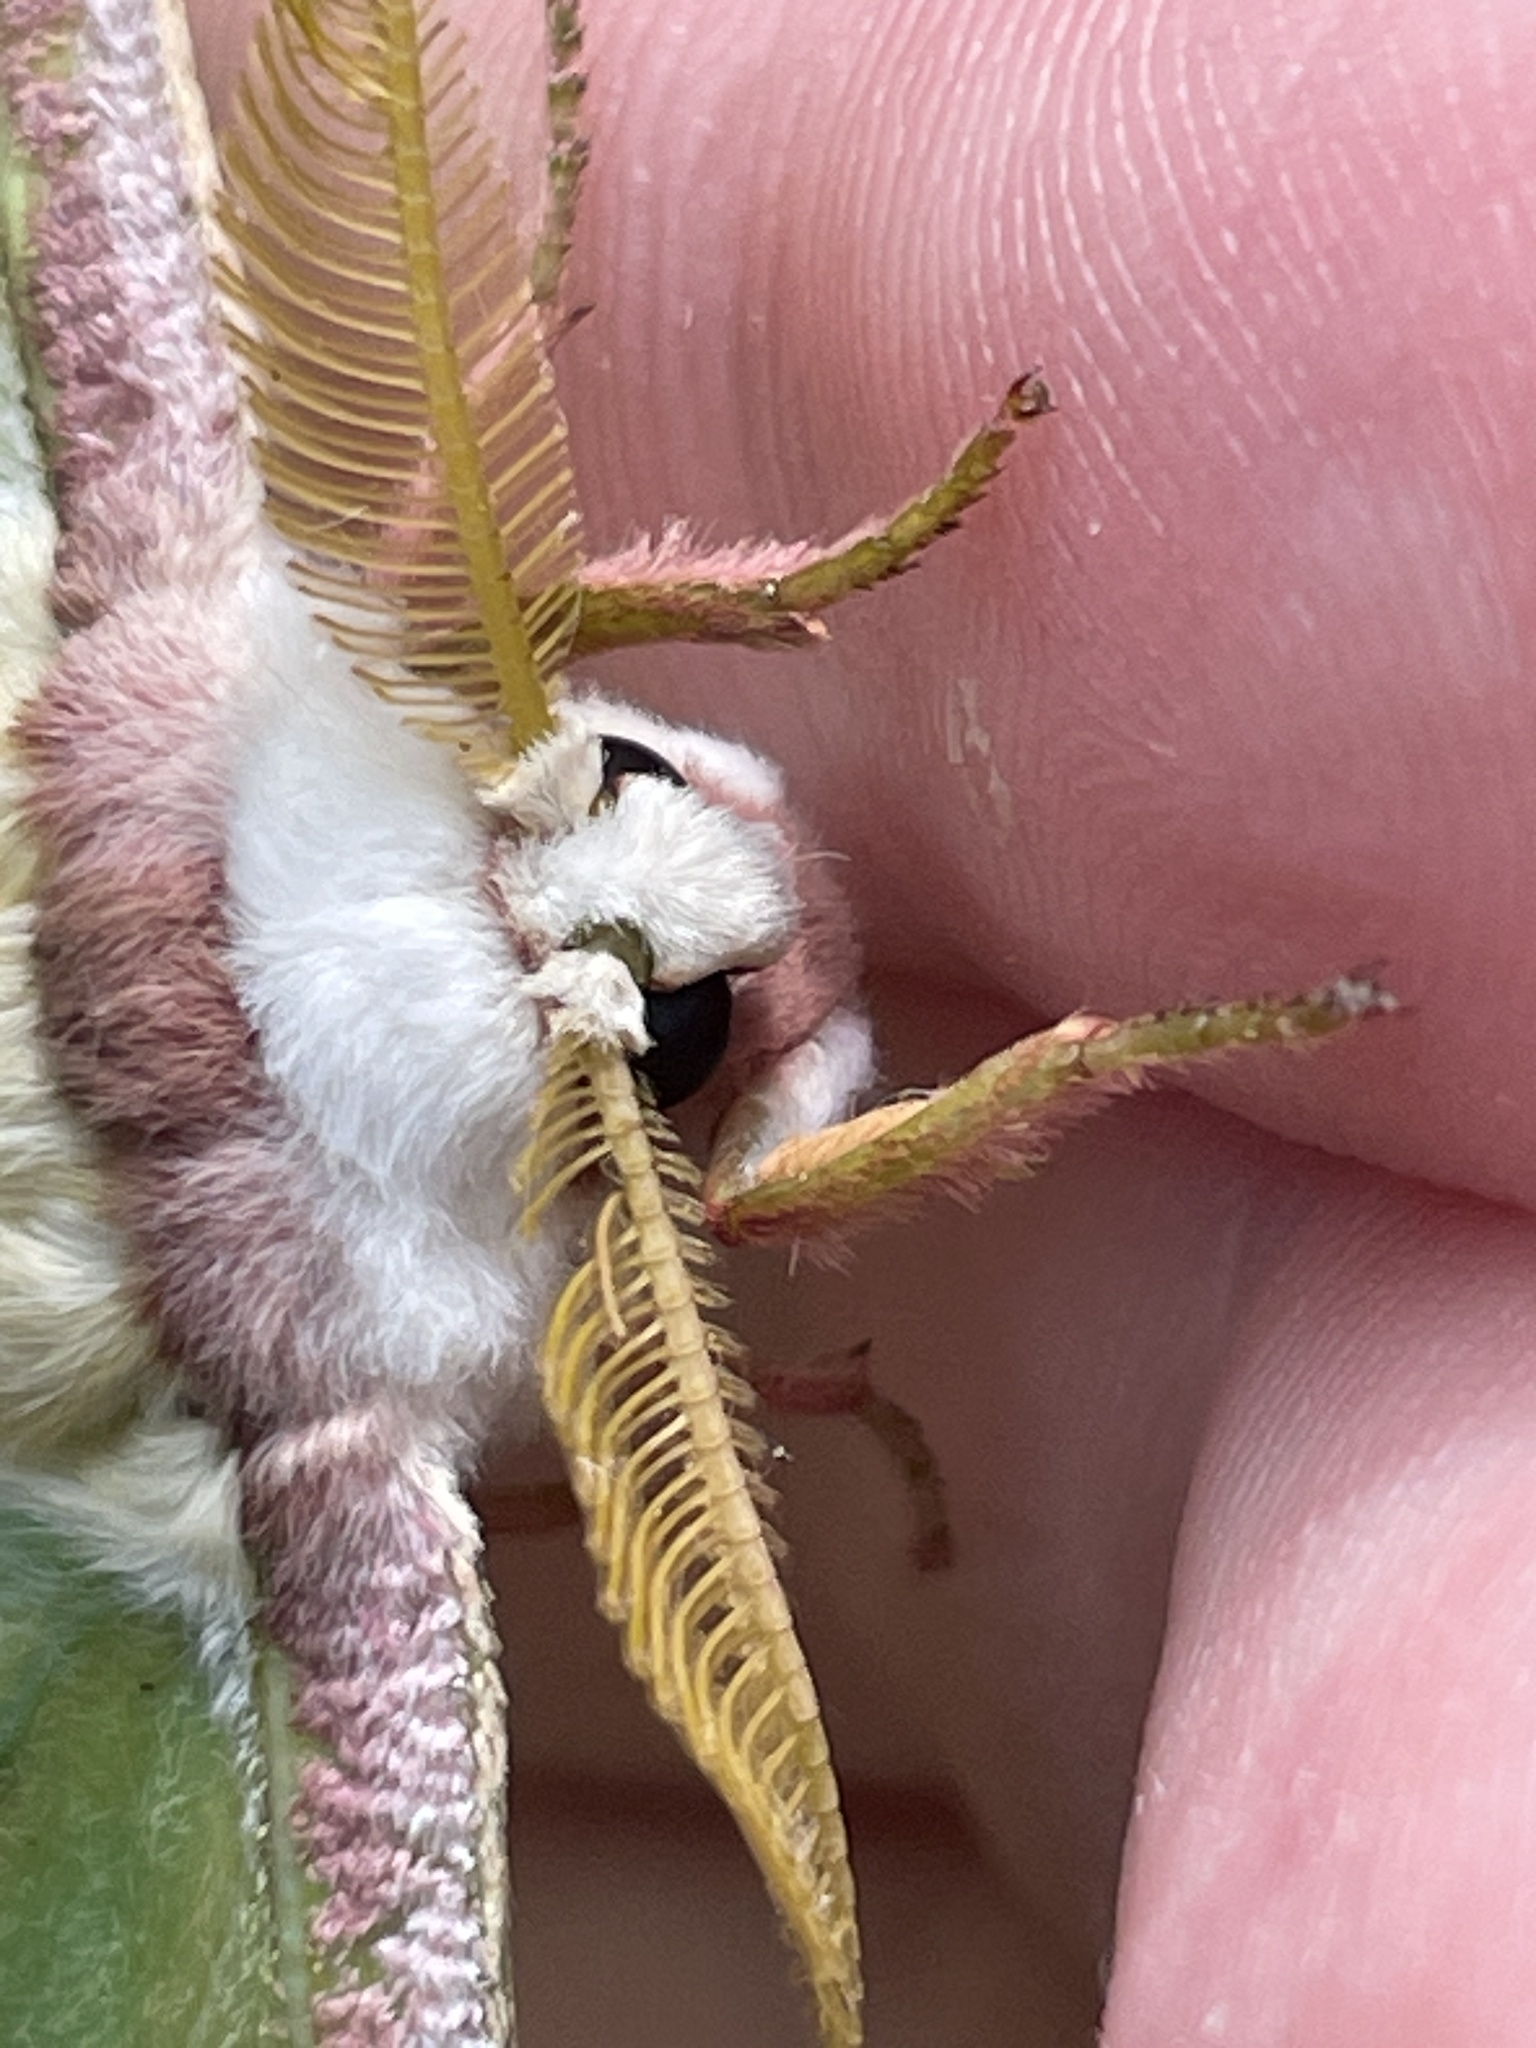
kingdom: Animalia
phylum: Arthropoda
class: Insecta
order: Lepidoptera
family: Saturniidae
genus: Actias
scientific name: Actias luna
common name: Luna moth
